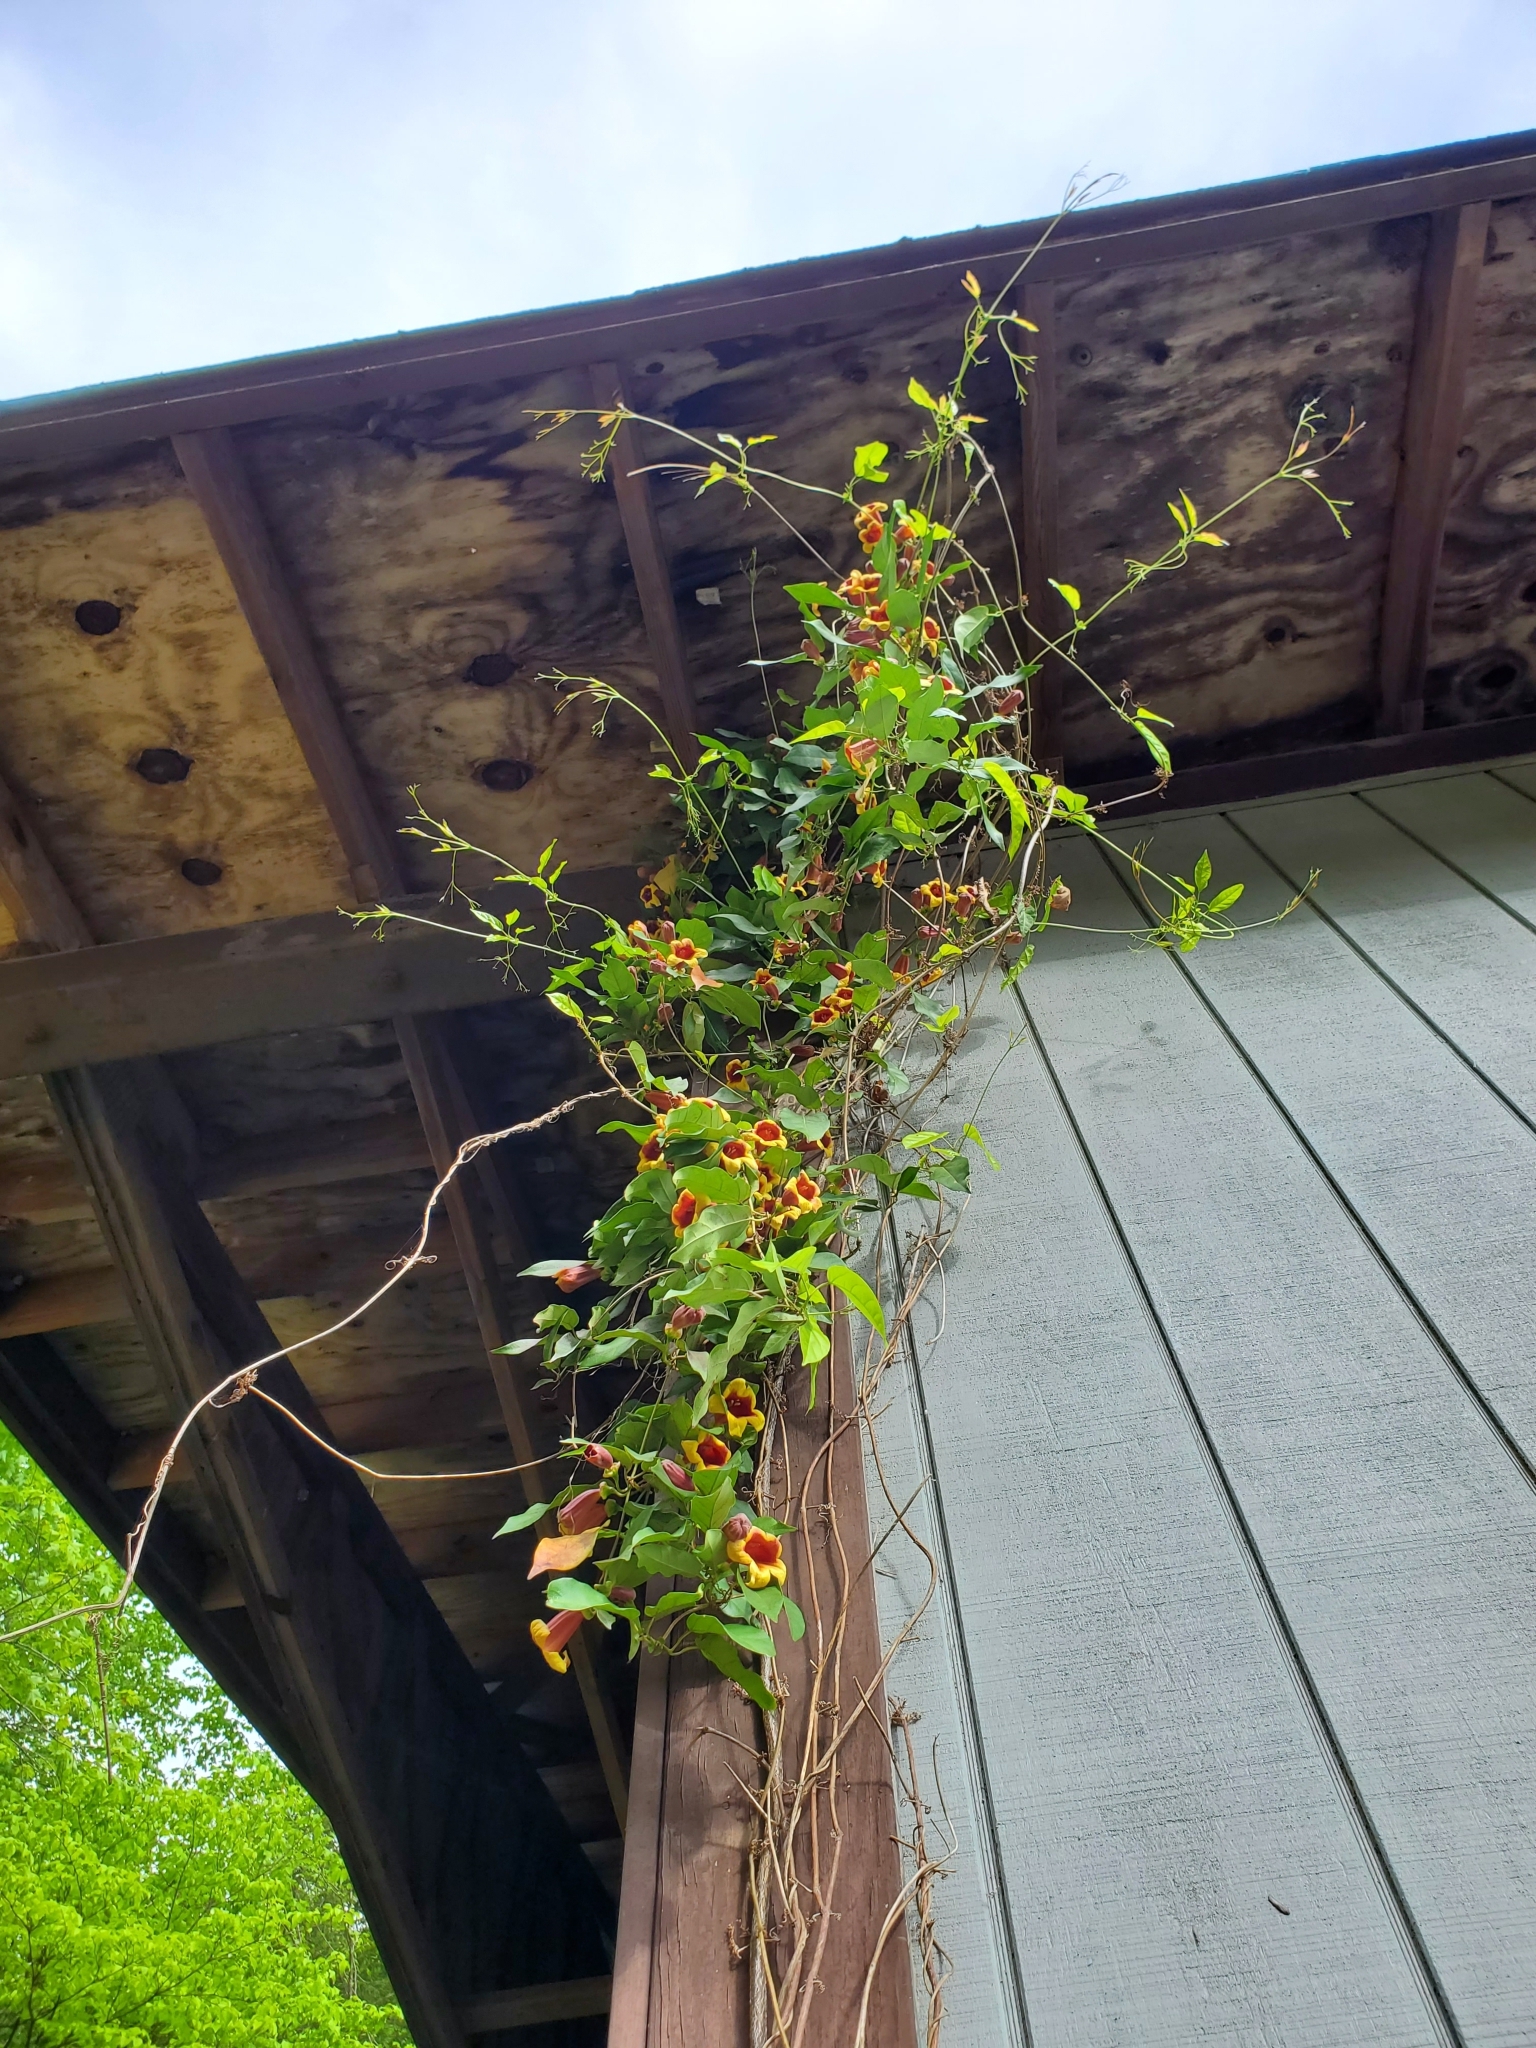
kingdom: Plantae
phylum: Tracheophyta
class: Magnoliopsida
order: Lamiales
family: Bignoniaceae
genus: Bignonia
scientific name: Bignonia capreolata
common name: Crossvine
